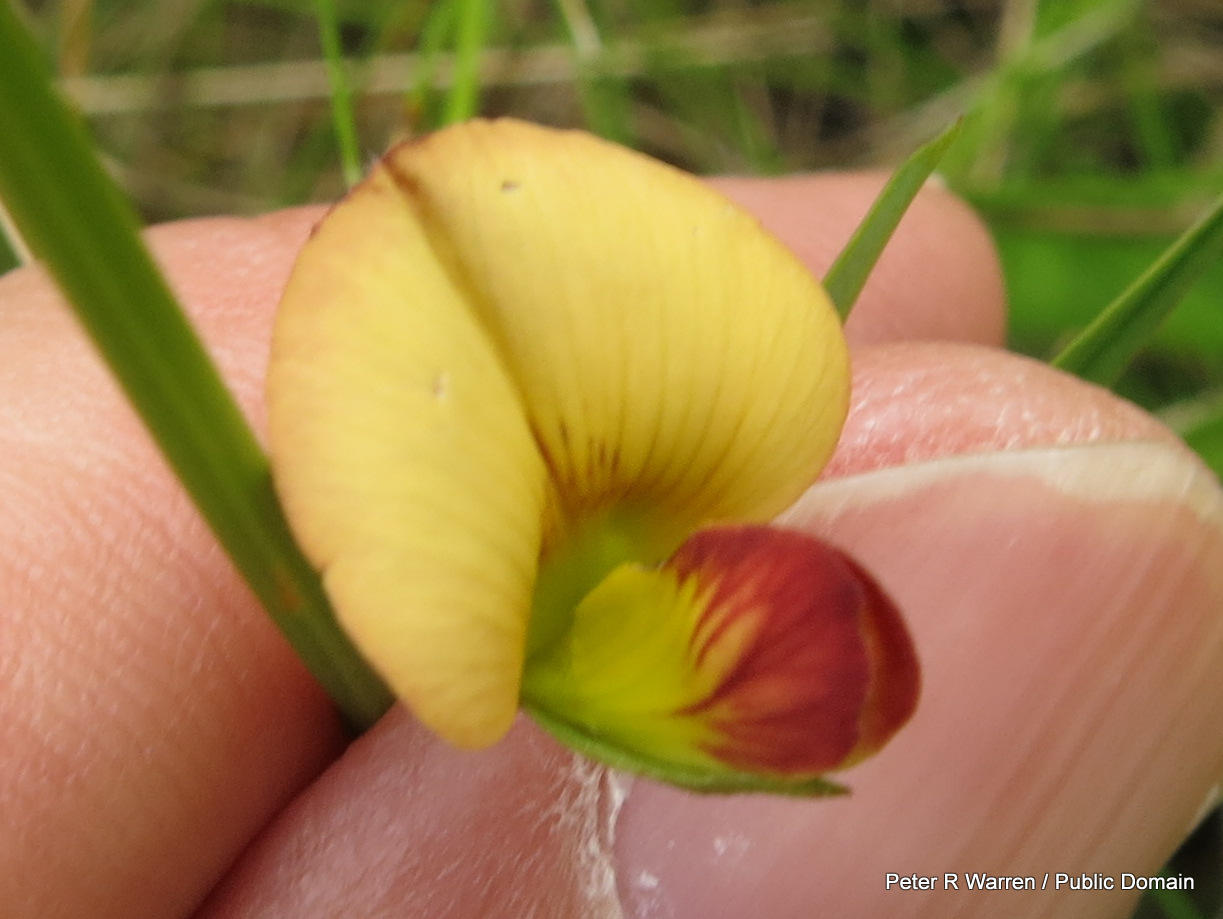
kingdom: Plantae
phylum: Tracheophyta
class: Magnoliopsida
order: Fabales
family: Fabaceae
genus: Argyrolobium
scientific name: Argyrolobium tuberosum
